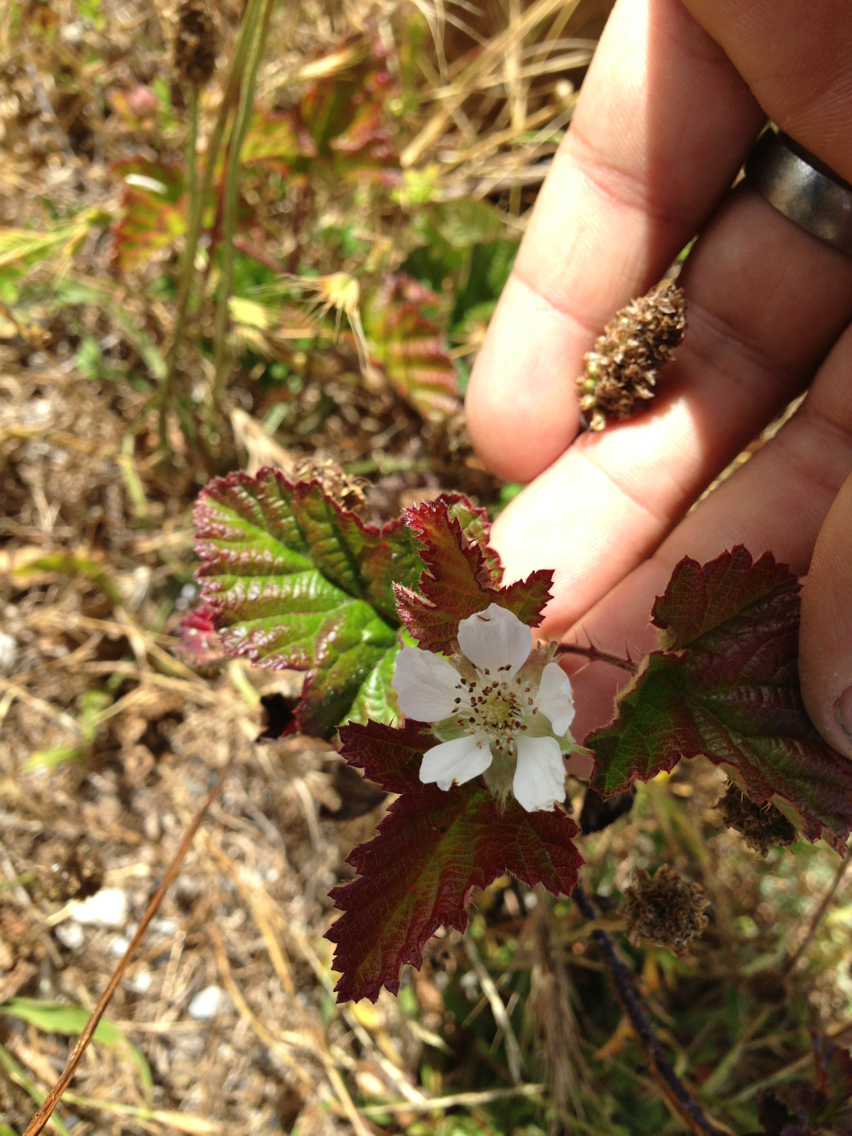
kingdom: Plantae
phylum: Tracheophyta
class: Magnoliopsida
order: Rosales
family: Rosaceae
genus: Rubus
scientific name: Rubus ursinus
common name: Pacific blackberry
